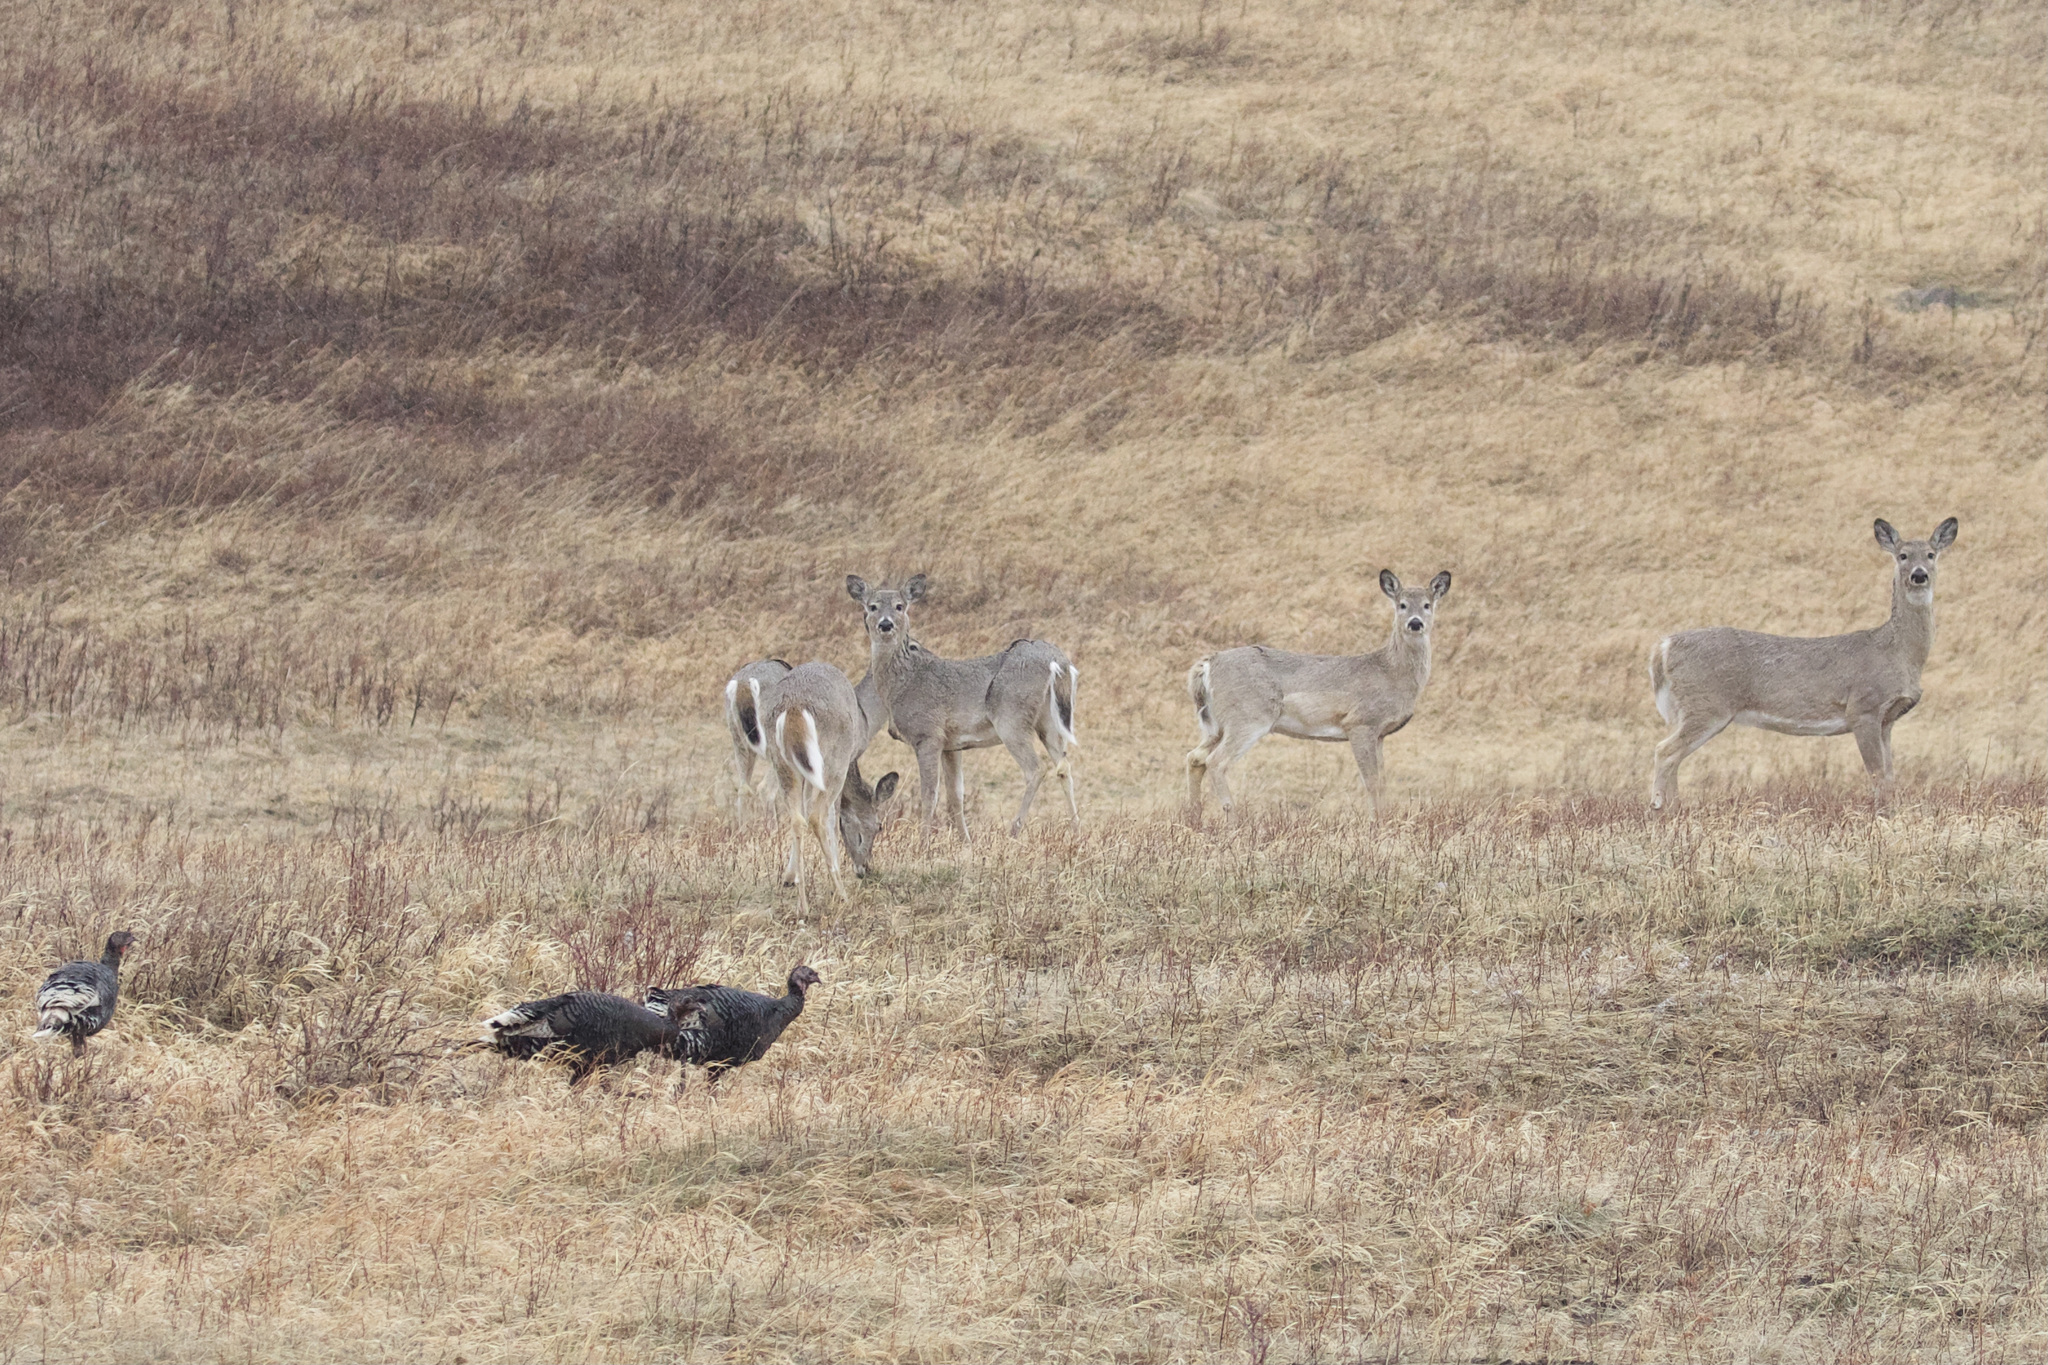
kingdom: Animalia
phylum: Chordata
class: Mammalia
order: Artiodactyla
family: Cervidae
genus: Odocoileus
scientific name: Odocoileus virginianus
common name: White-tailed deer
